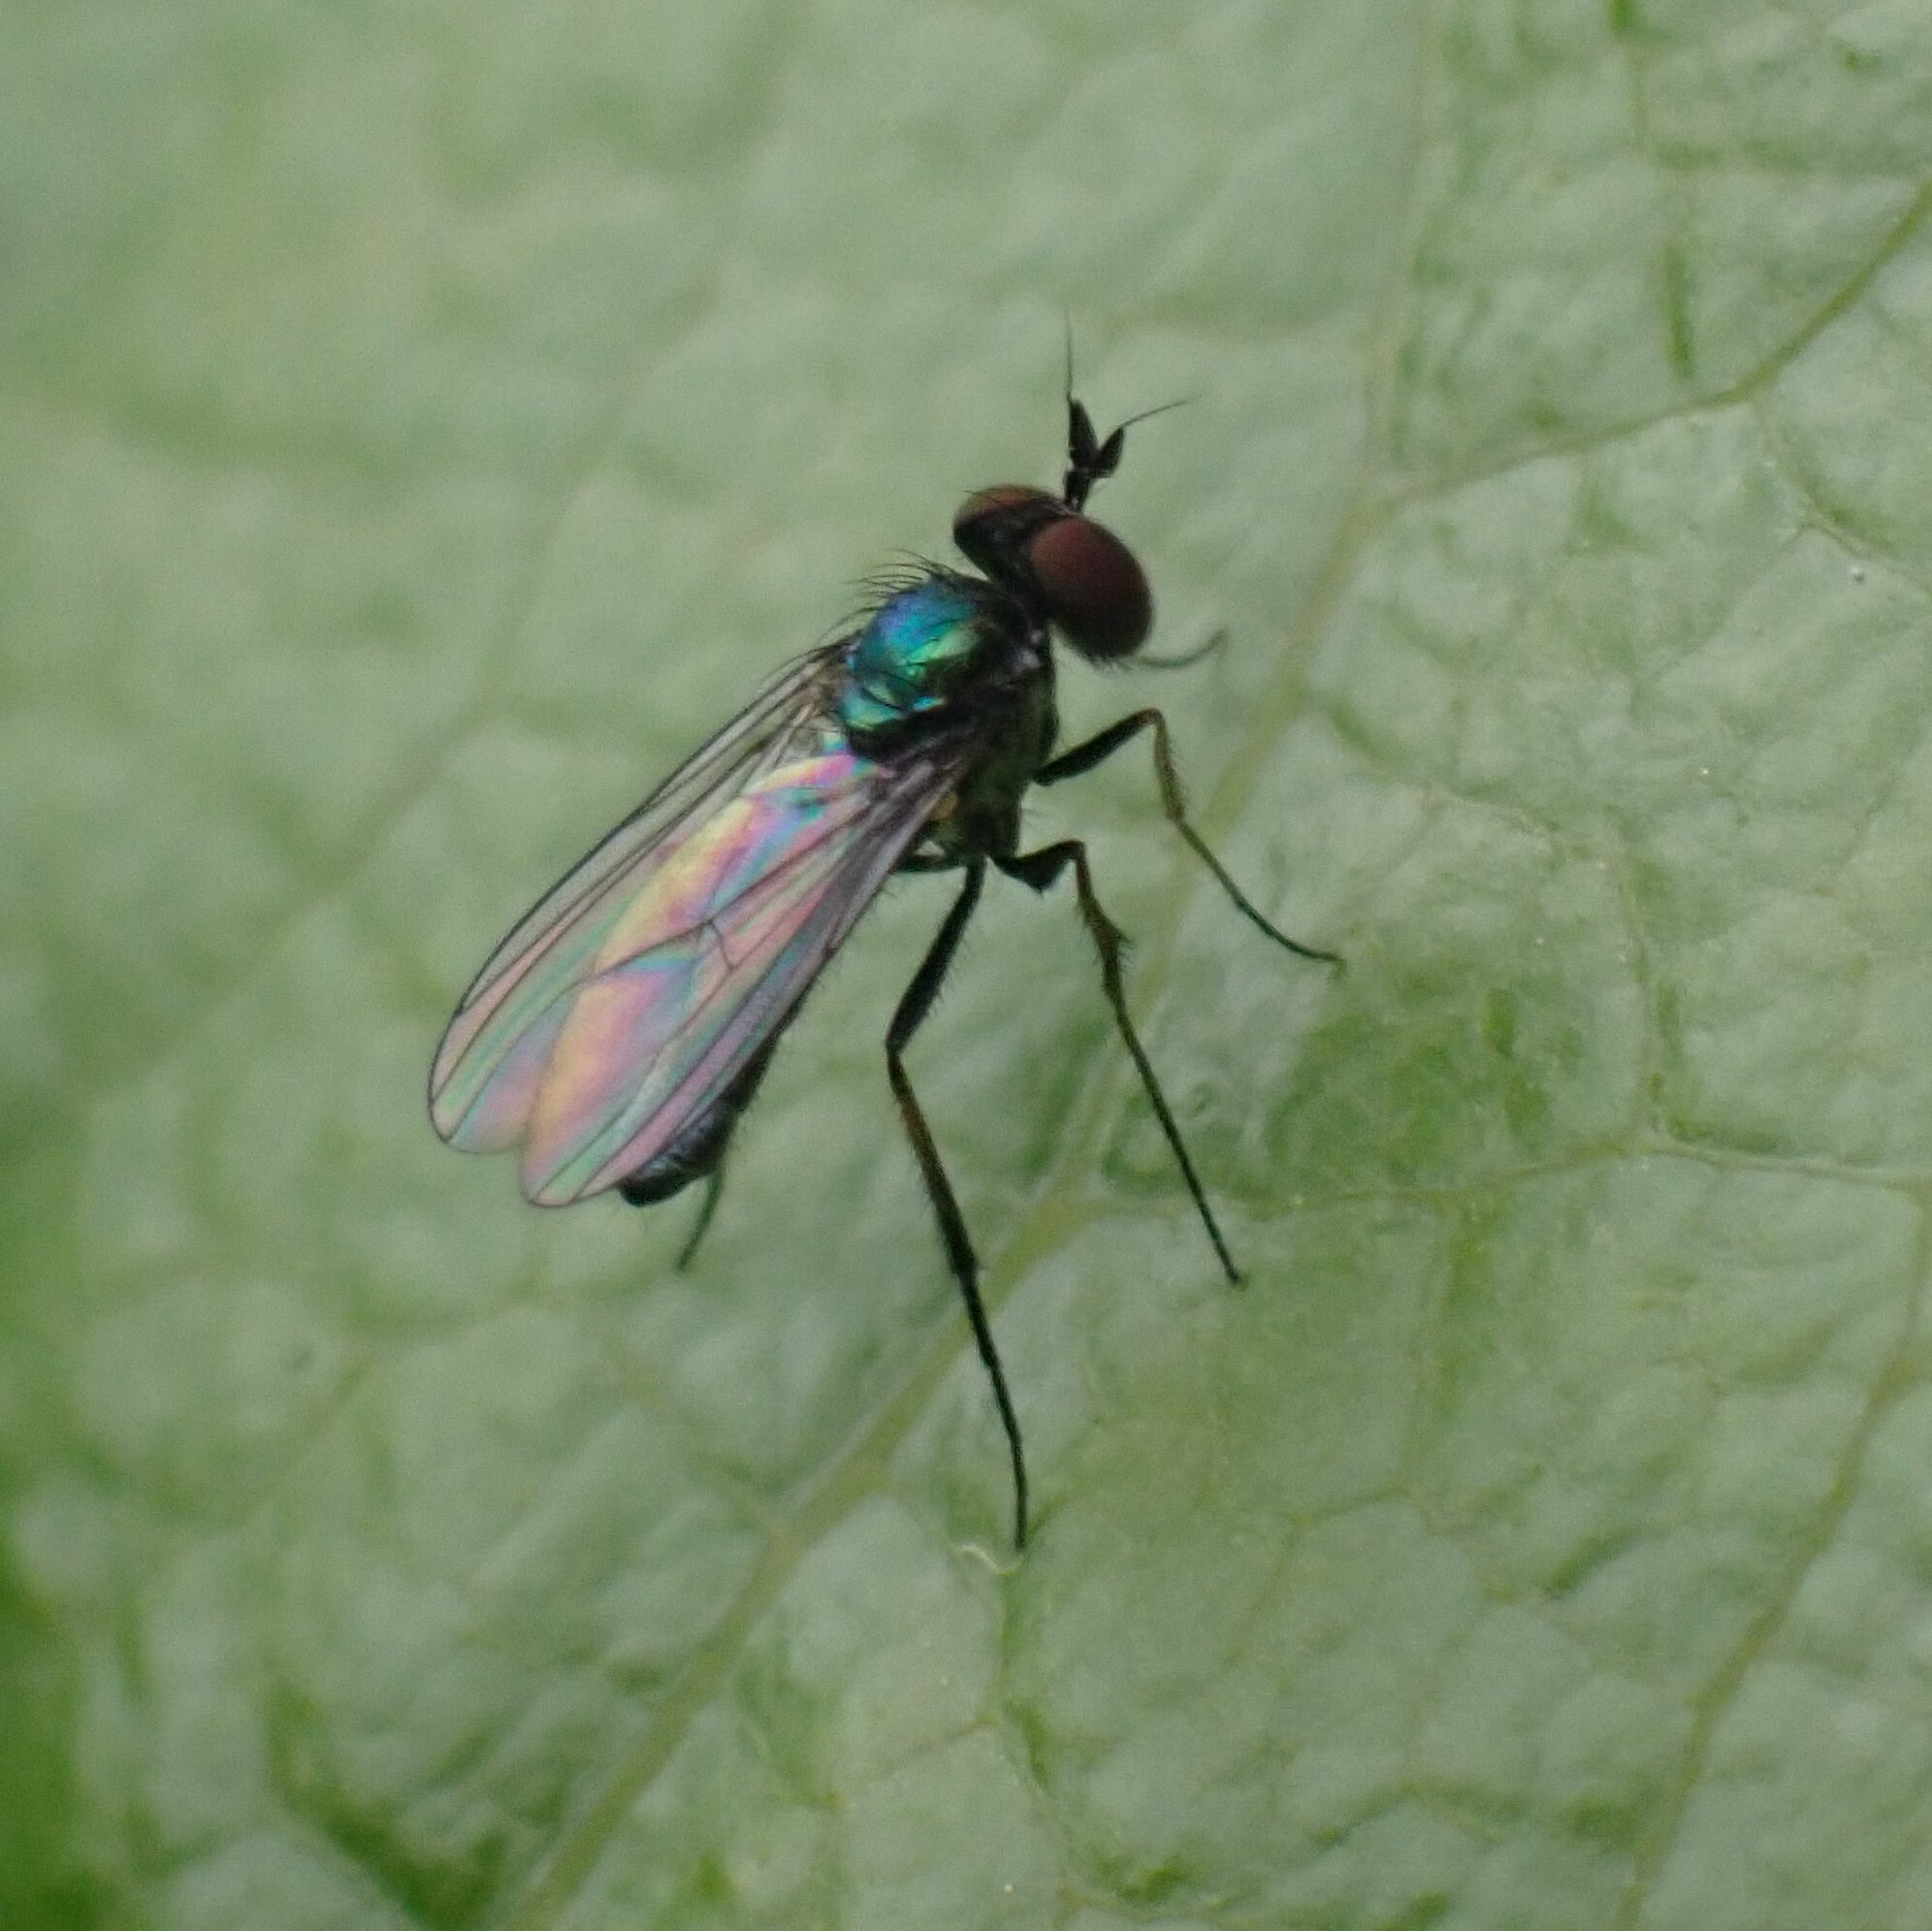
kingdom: Animalia
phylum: Arthropoda
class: Insecta
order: Diptera
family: Dolichopodidae
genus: Argyra
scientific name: Argyra femoralis
